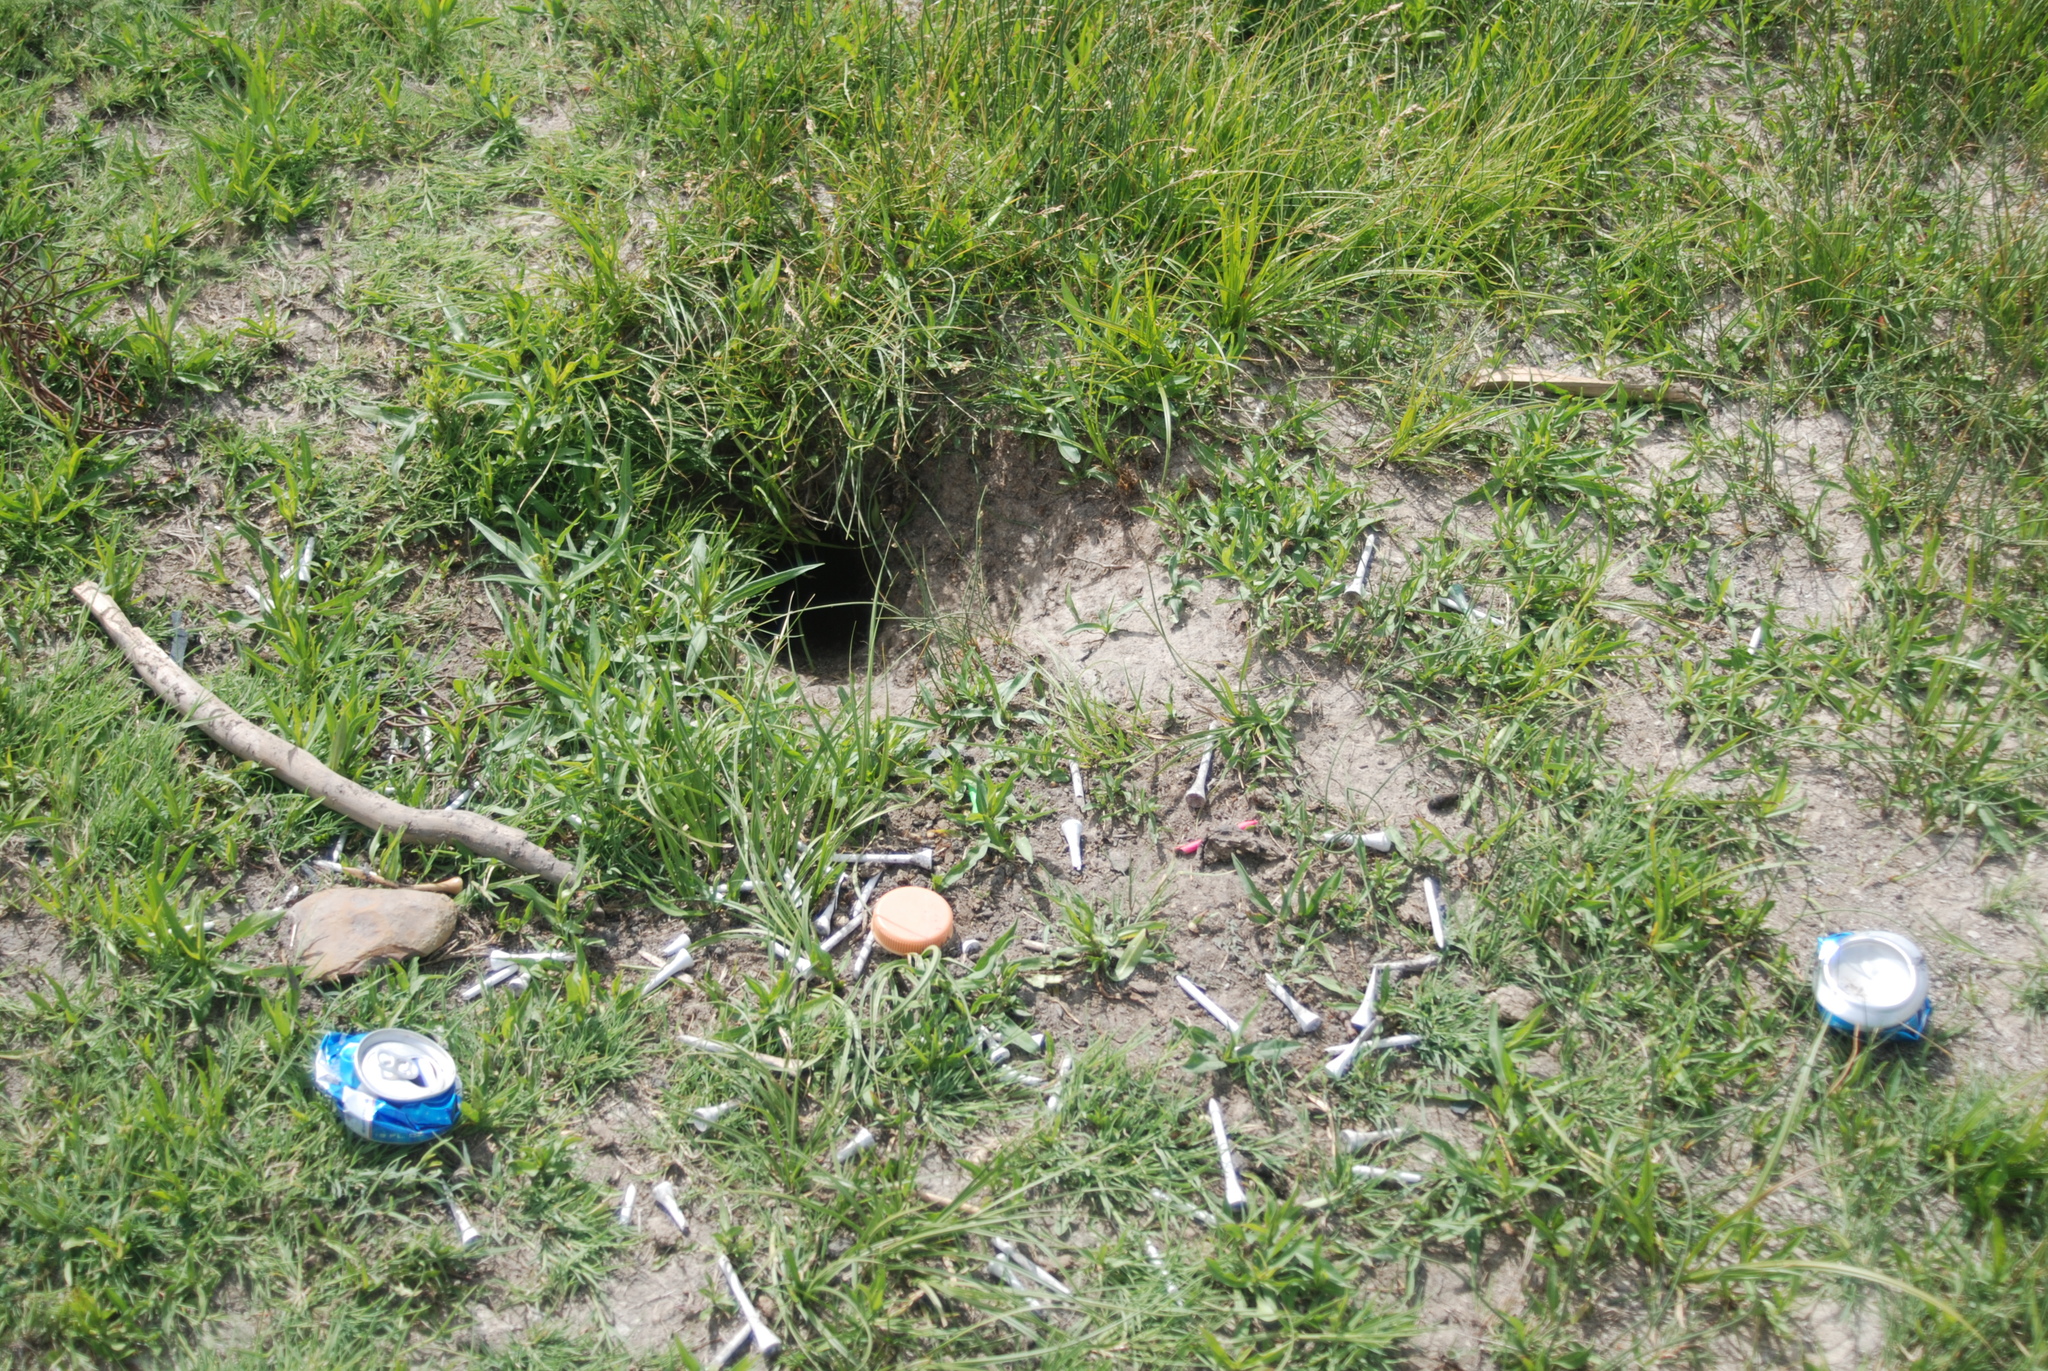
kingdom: Animalia
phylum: Chordata
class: Mammalia
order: Rodentia
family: Sciuridae
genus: Cynomys
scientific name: Cynomys gunnisoni
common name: Gunnison's prairie dog
